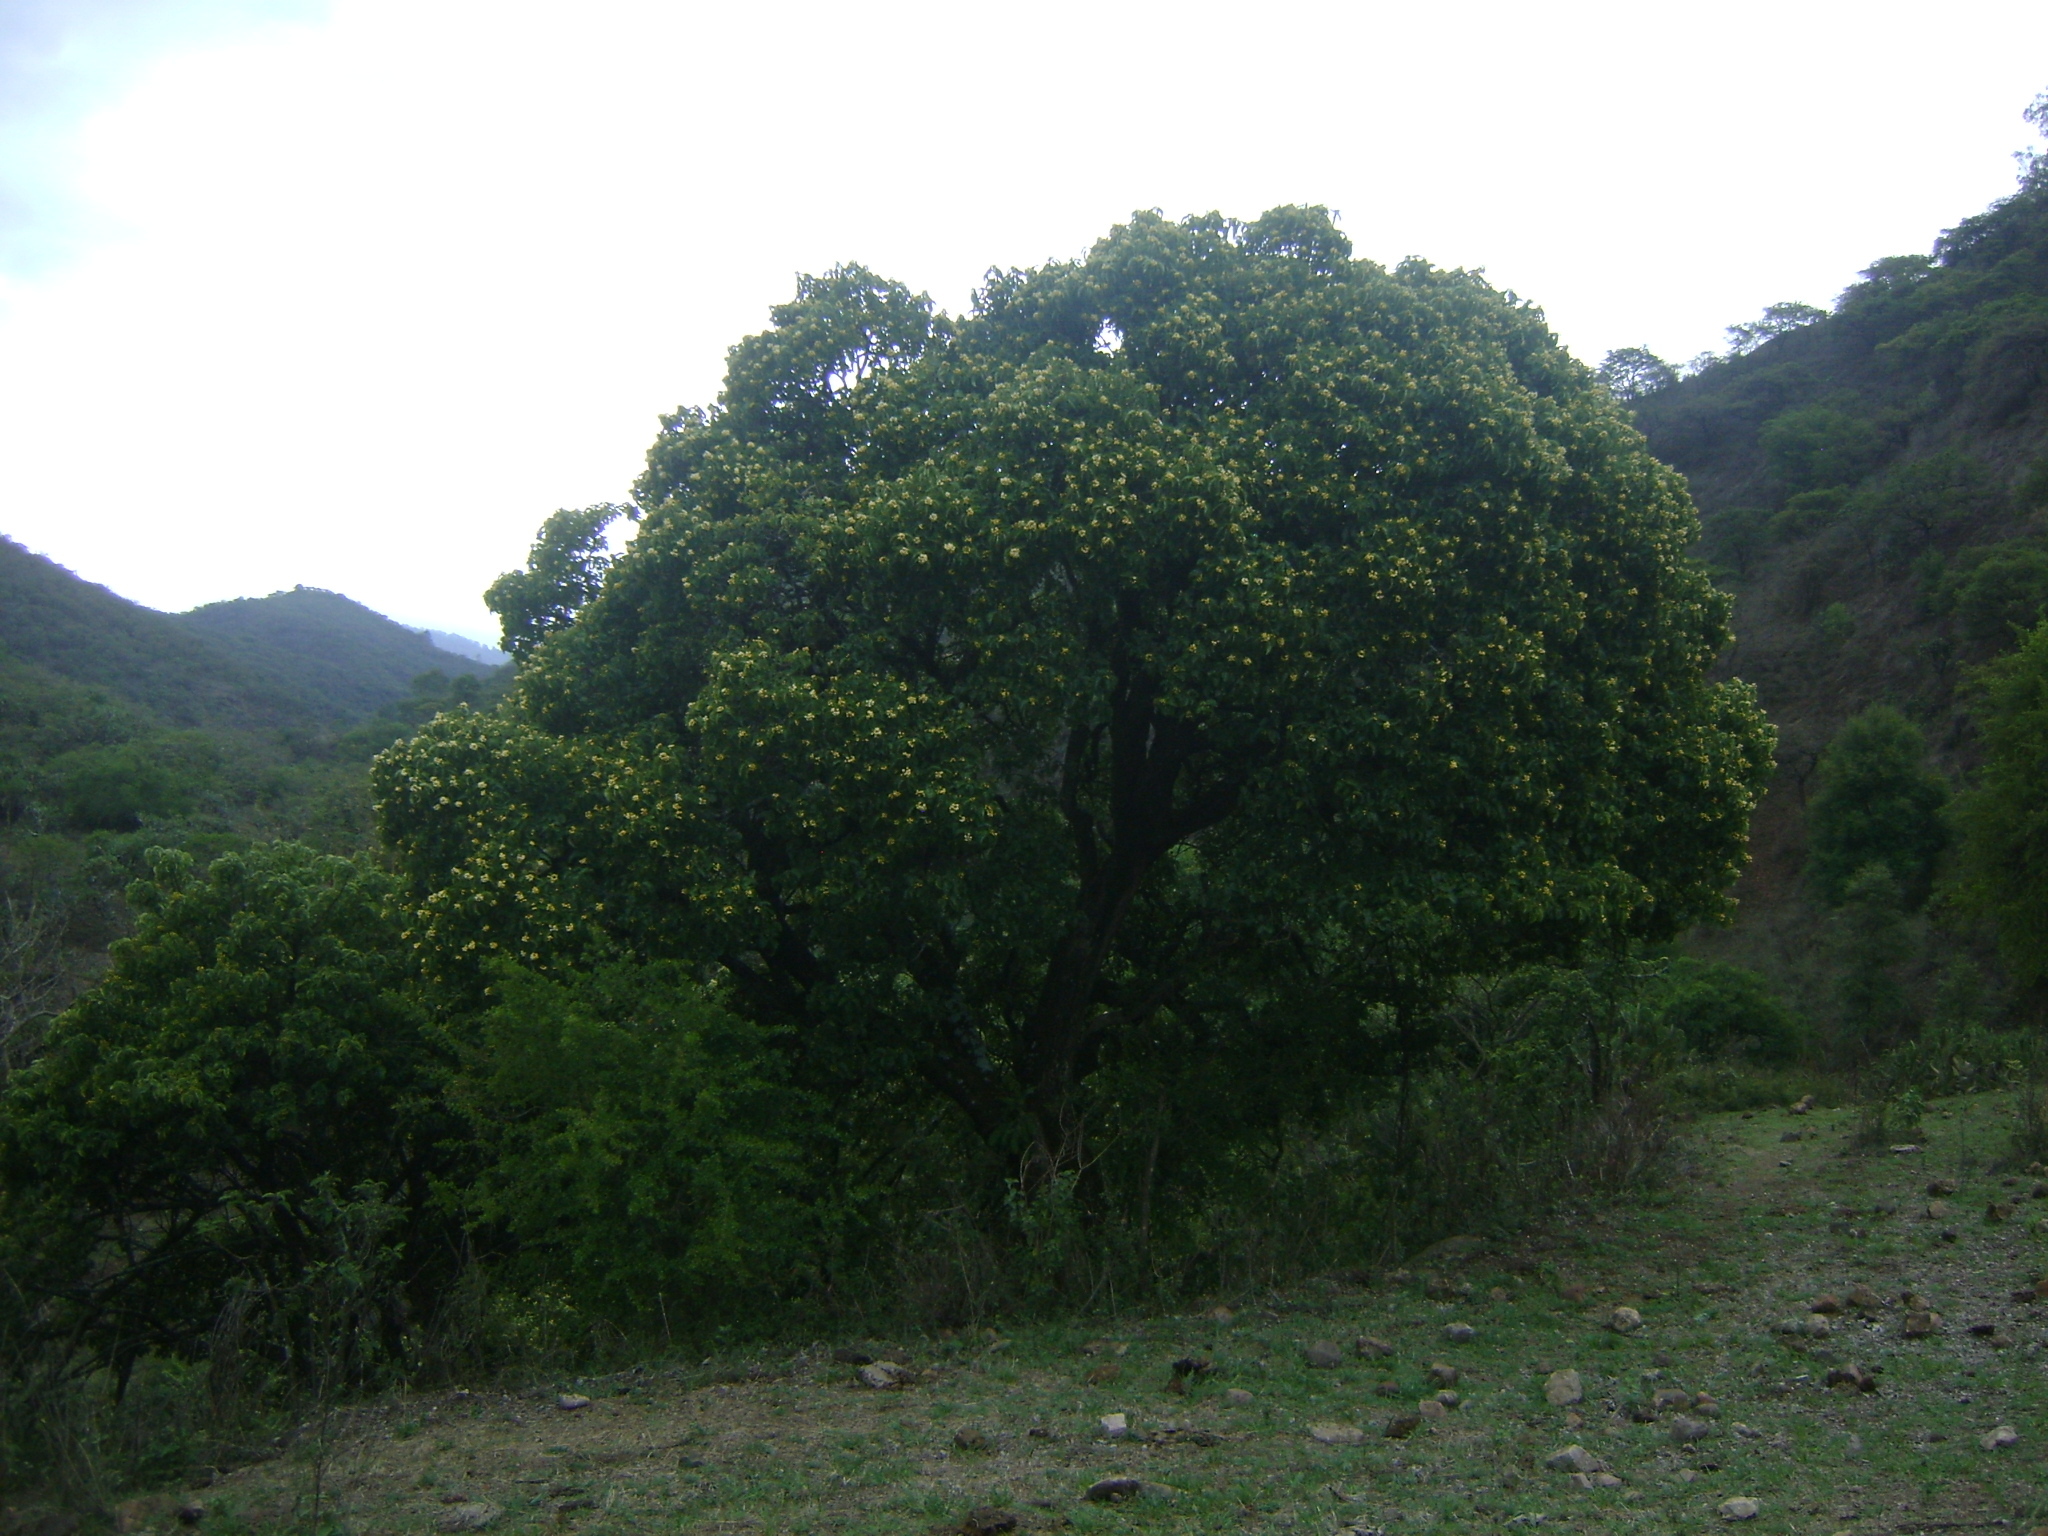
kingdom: Plantae
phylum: Tracheophyta
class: Magnoliopsida
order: Boraginales
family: Ehretiaceae
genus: Ehretia
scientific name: Ehretia latifolia
